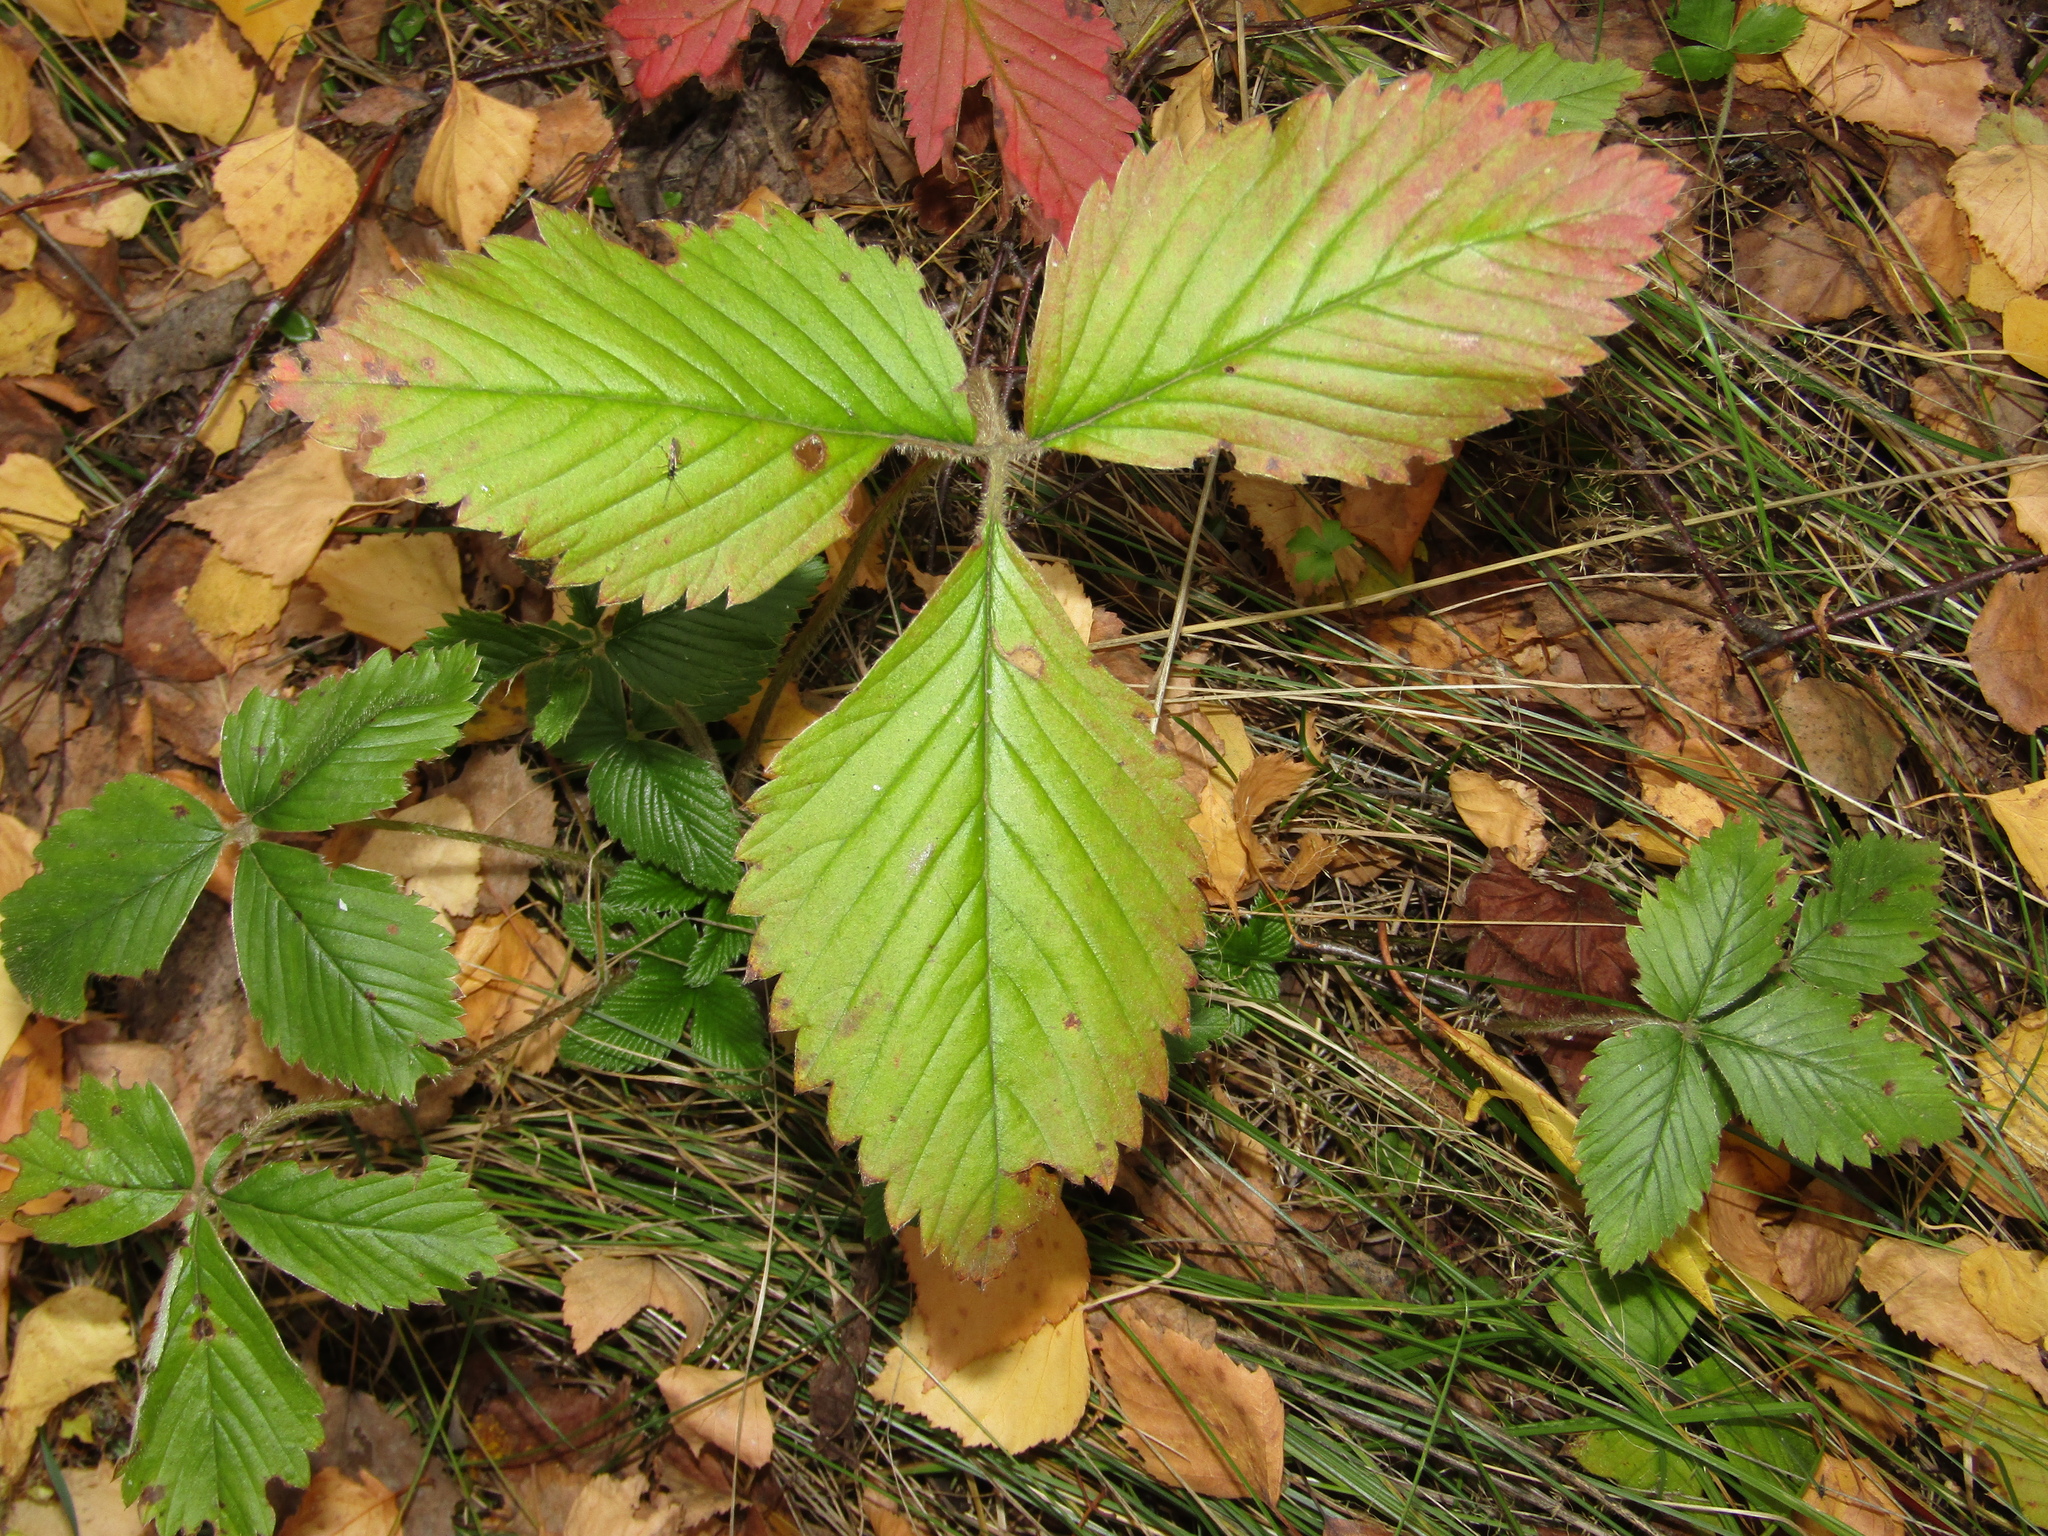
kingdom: Plantae
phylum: Tracheophyta
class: Magnoliopsida
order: Rosales
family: Rosaceae
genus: Fragaria
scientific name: Fragaria moschata
